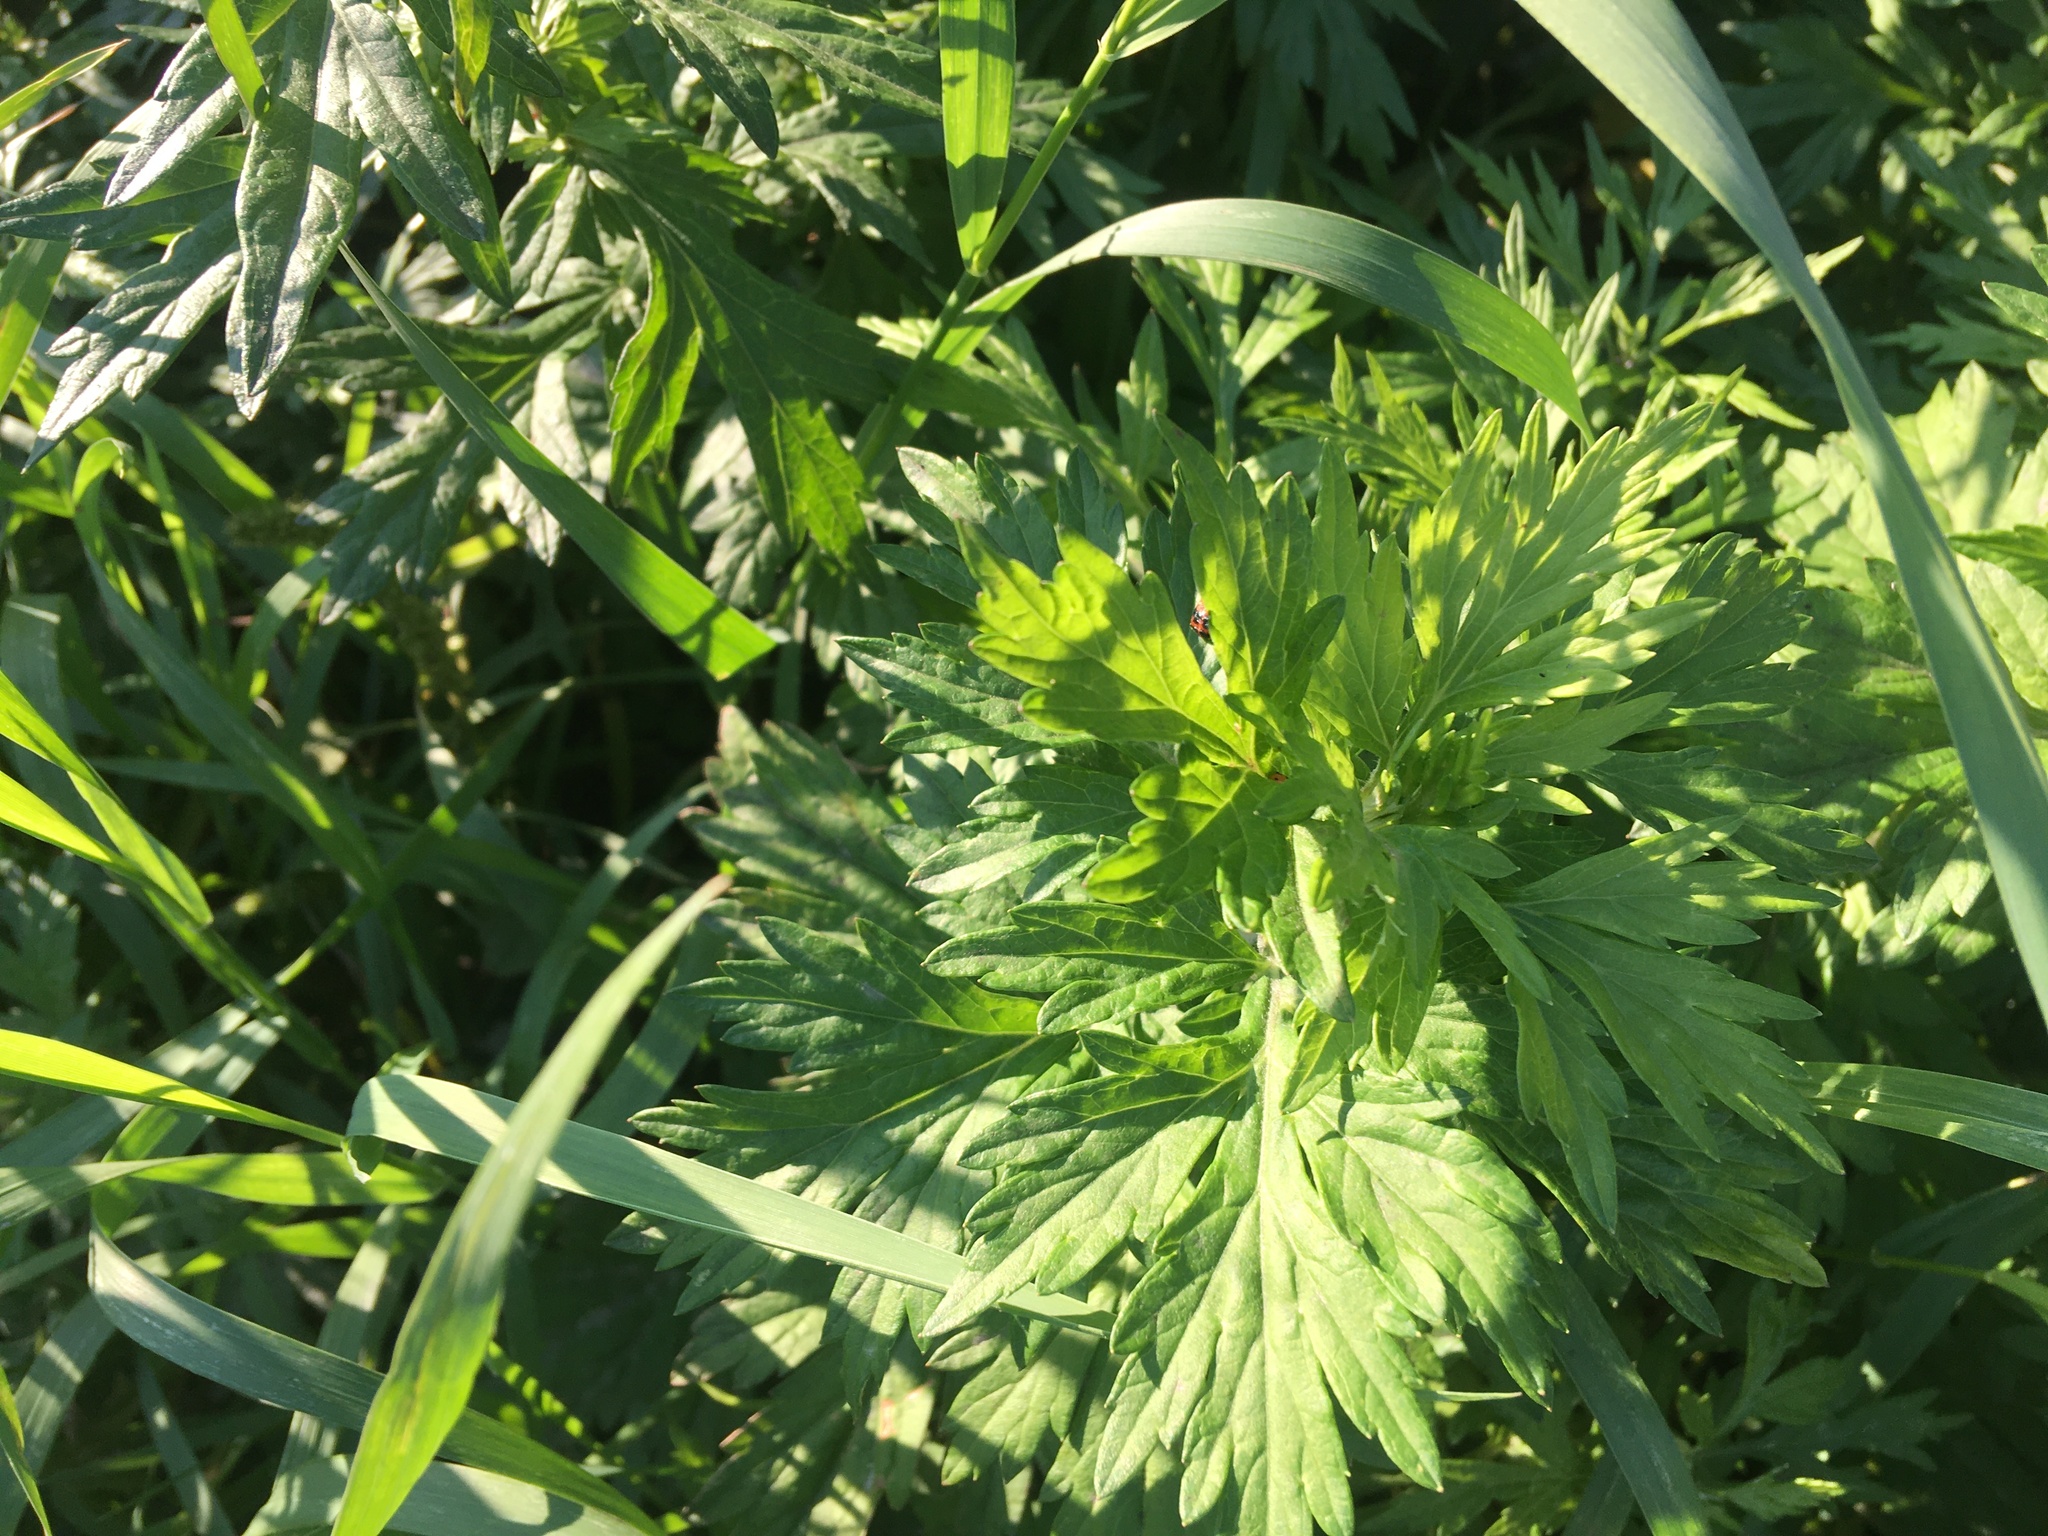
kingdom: Plantae
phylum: Tracheophyta
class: Magnoliopsida
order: Asterales
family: Asteraceae
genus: Artemisia
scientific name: Artemisia vulgaris
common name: Mugwort
